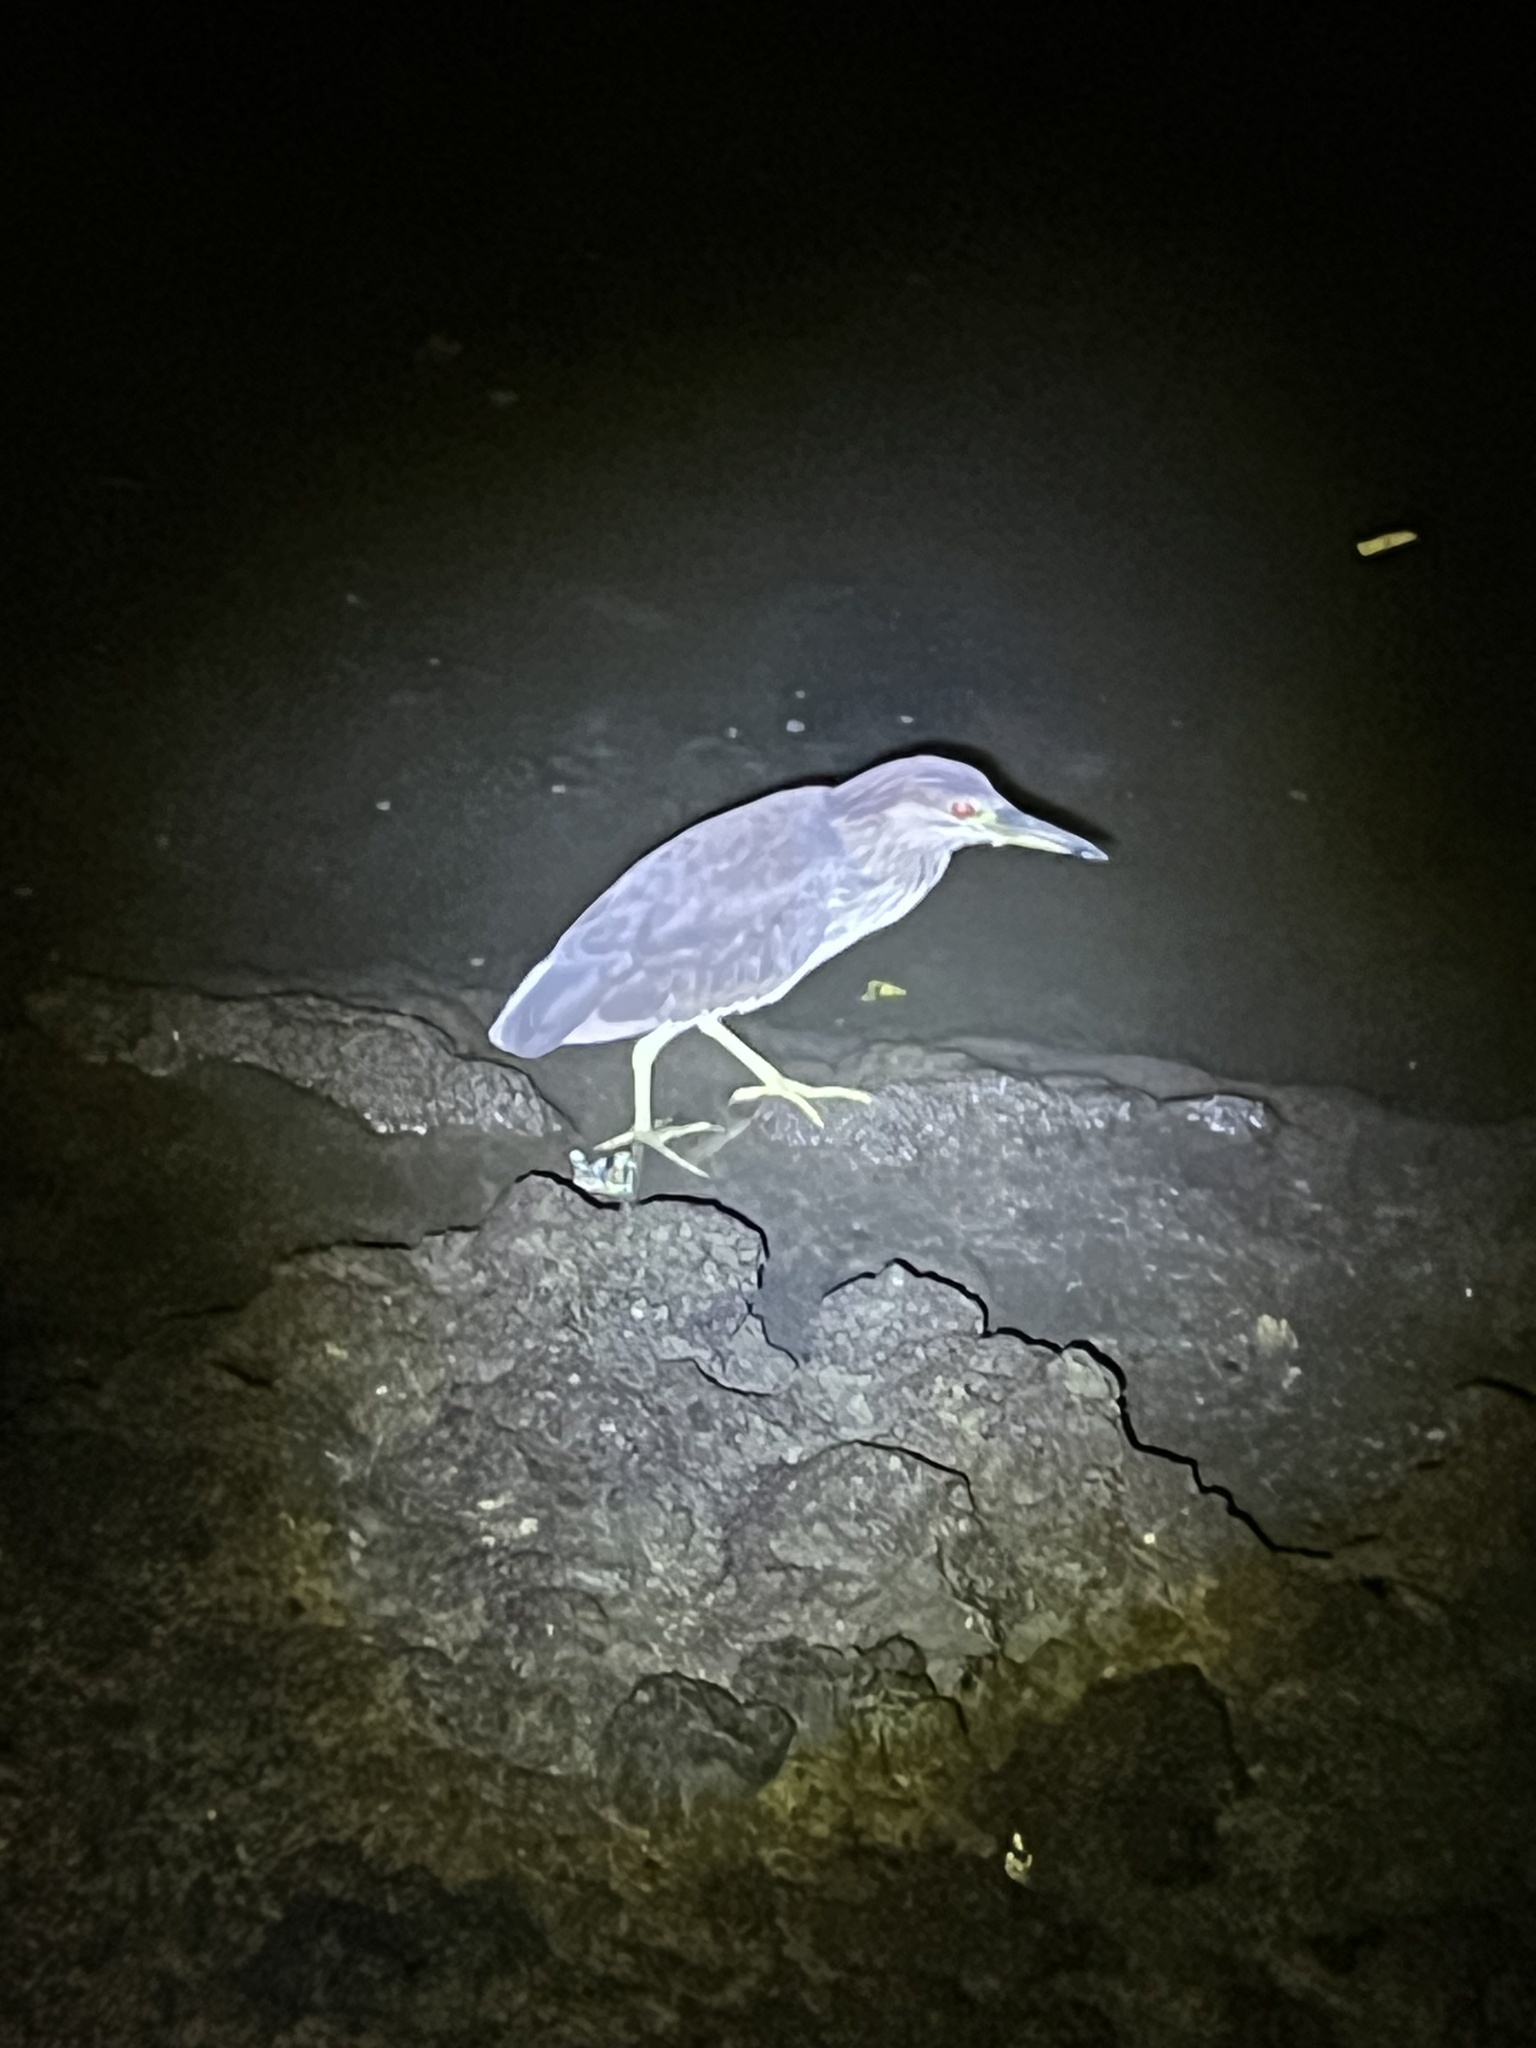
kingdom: Animalia
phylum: Chordata
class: Aves
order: Pelecaniformes
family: Ardeidae
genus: Nycticorax
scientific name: Nycticorax nycticorax
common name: Black-crowned night heron
